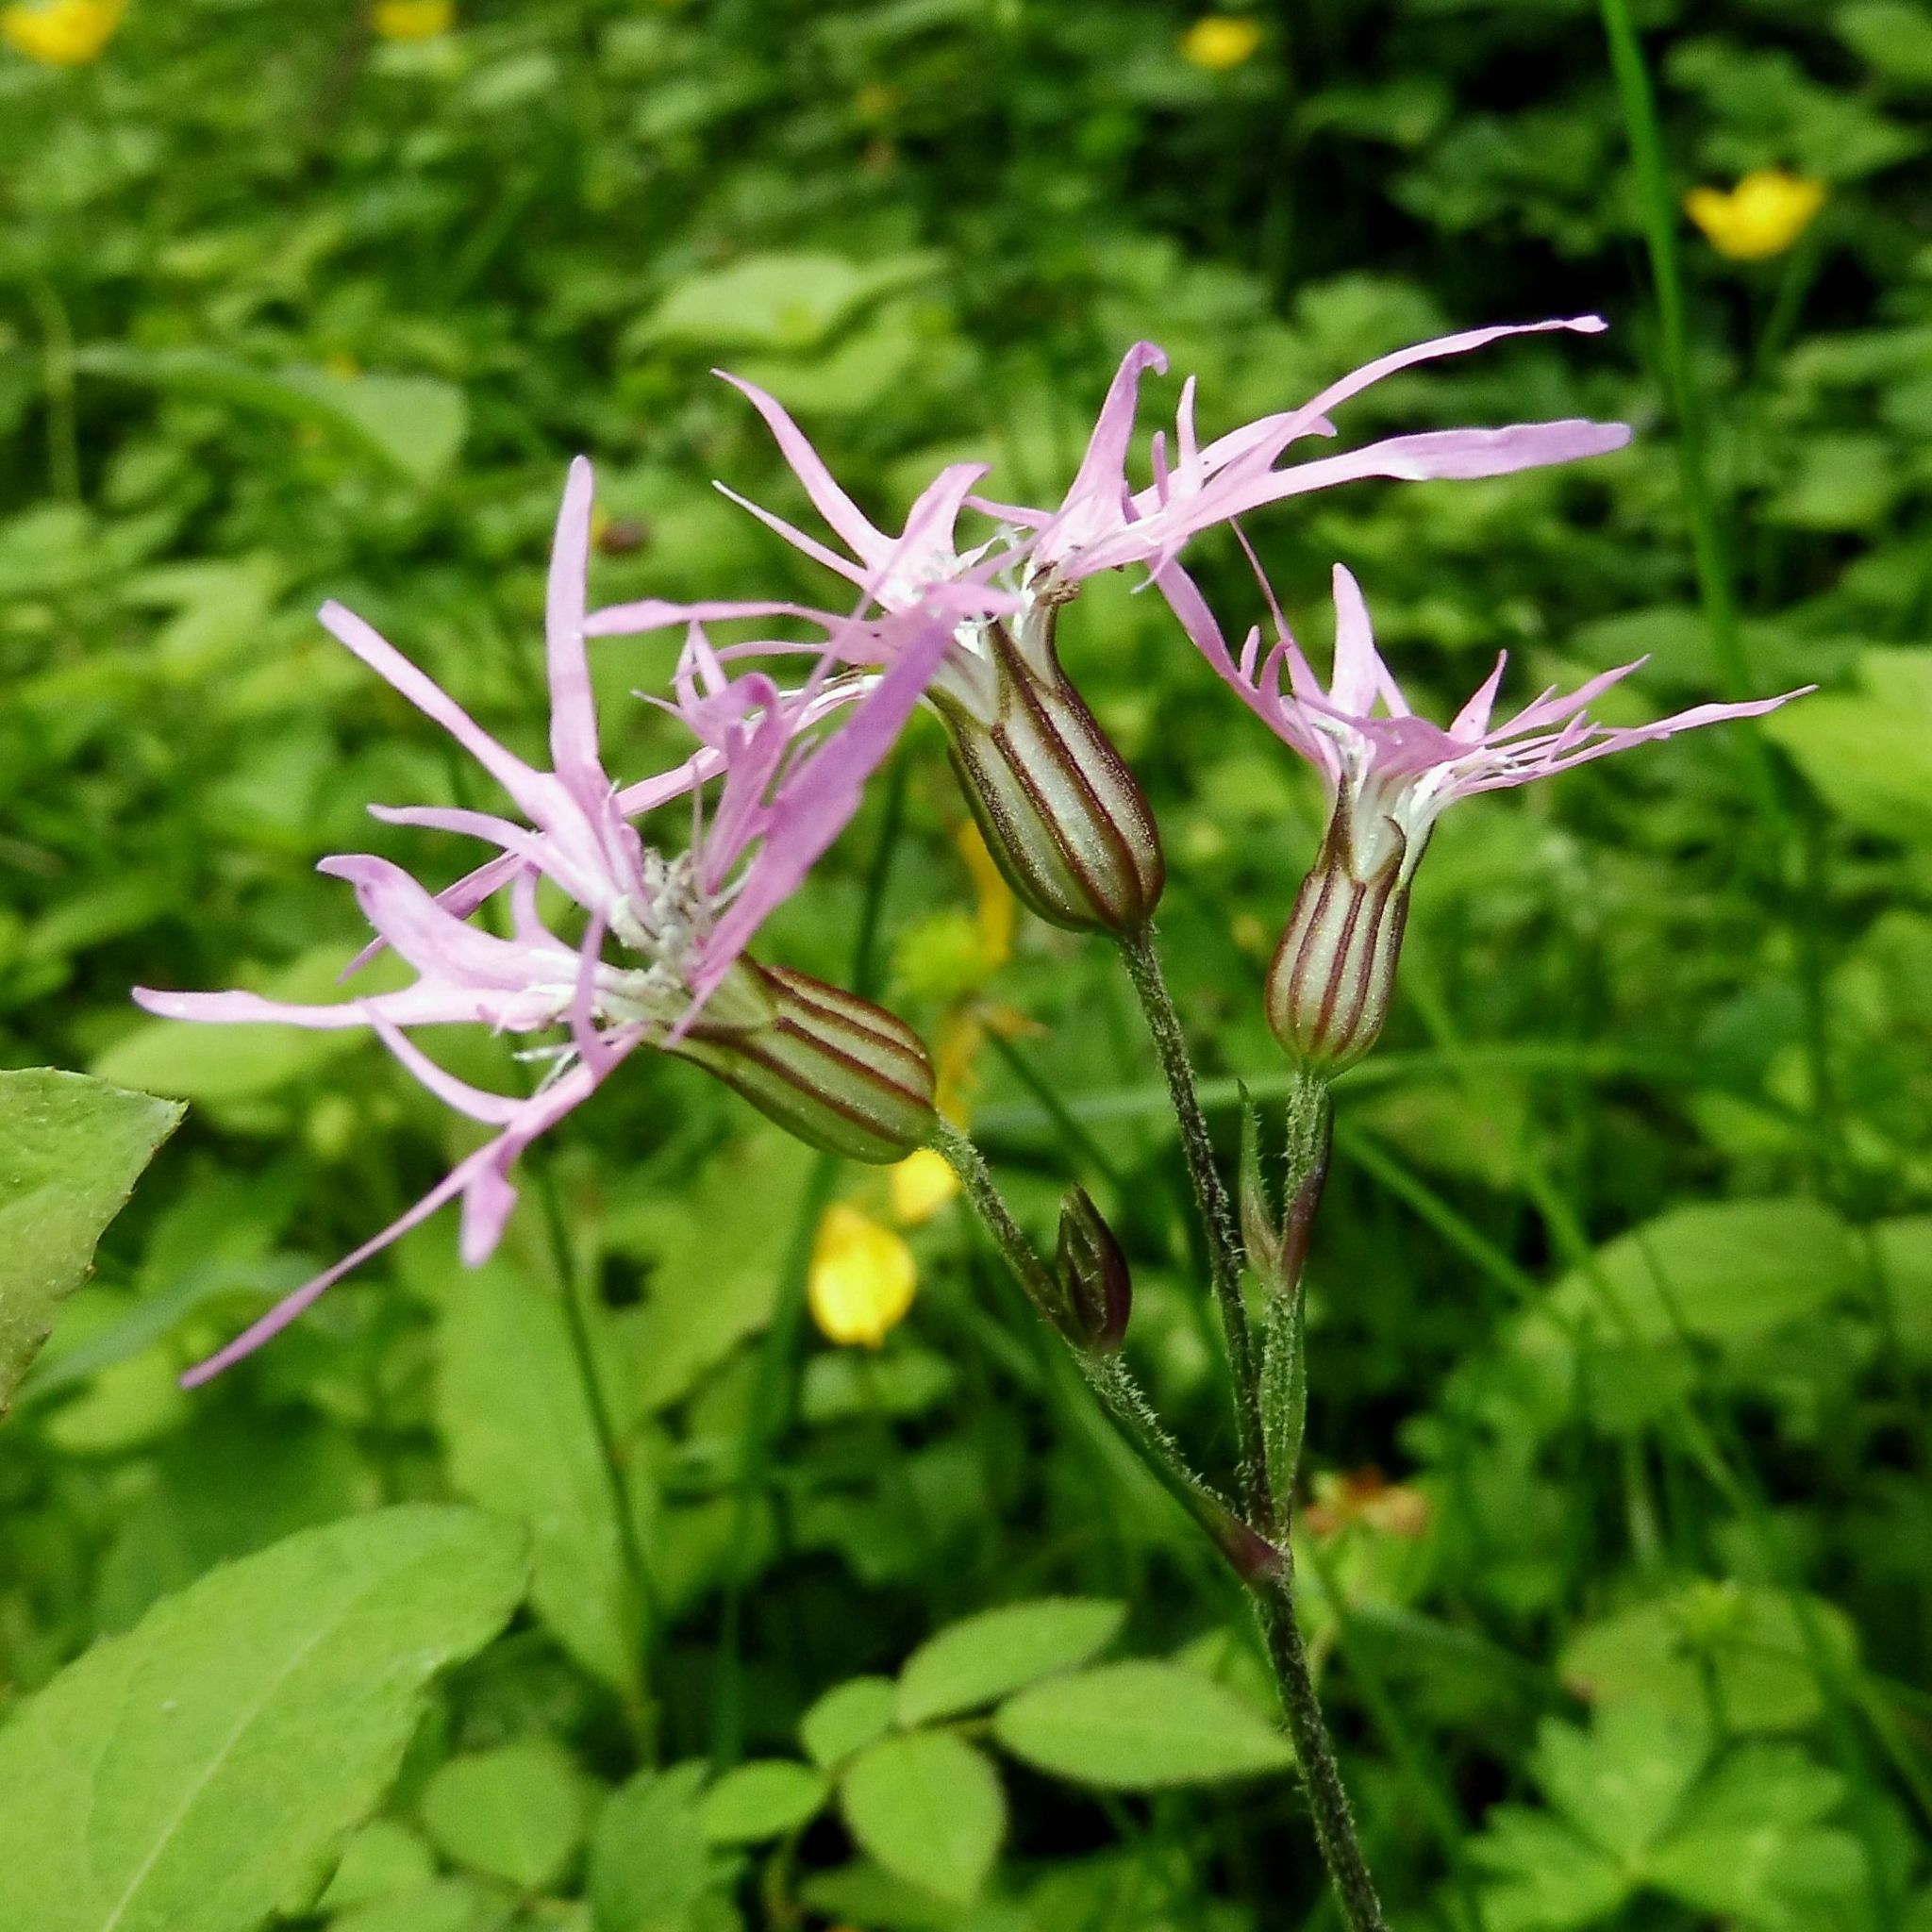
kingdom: Plantae
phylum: Tracheophyta
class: Magnoliopsida
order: Caryophyllales
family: Caryophyllaceae
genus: Silene
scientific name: Silene flos-cuculi
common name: Ragged-robin
